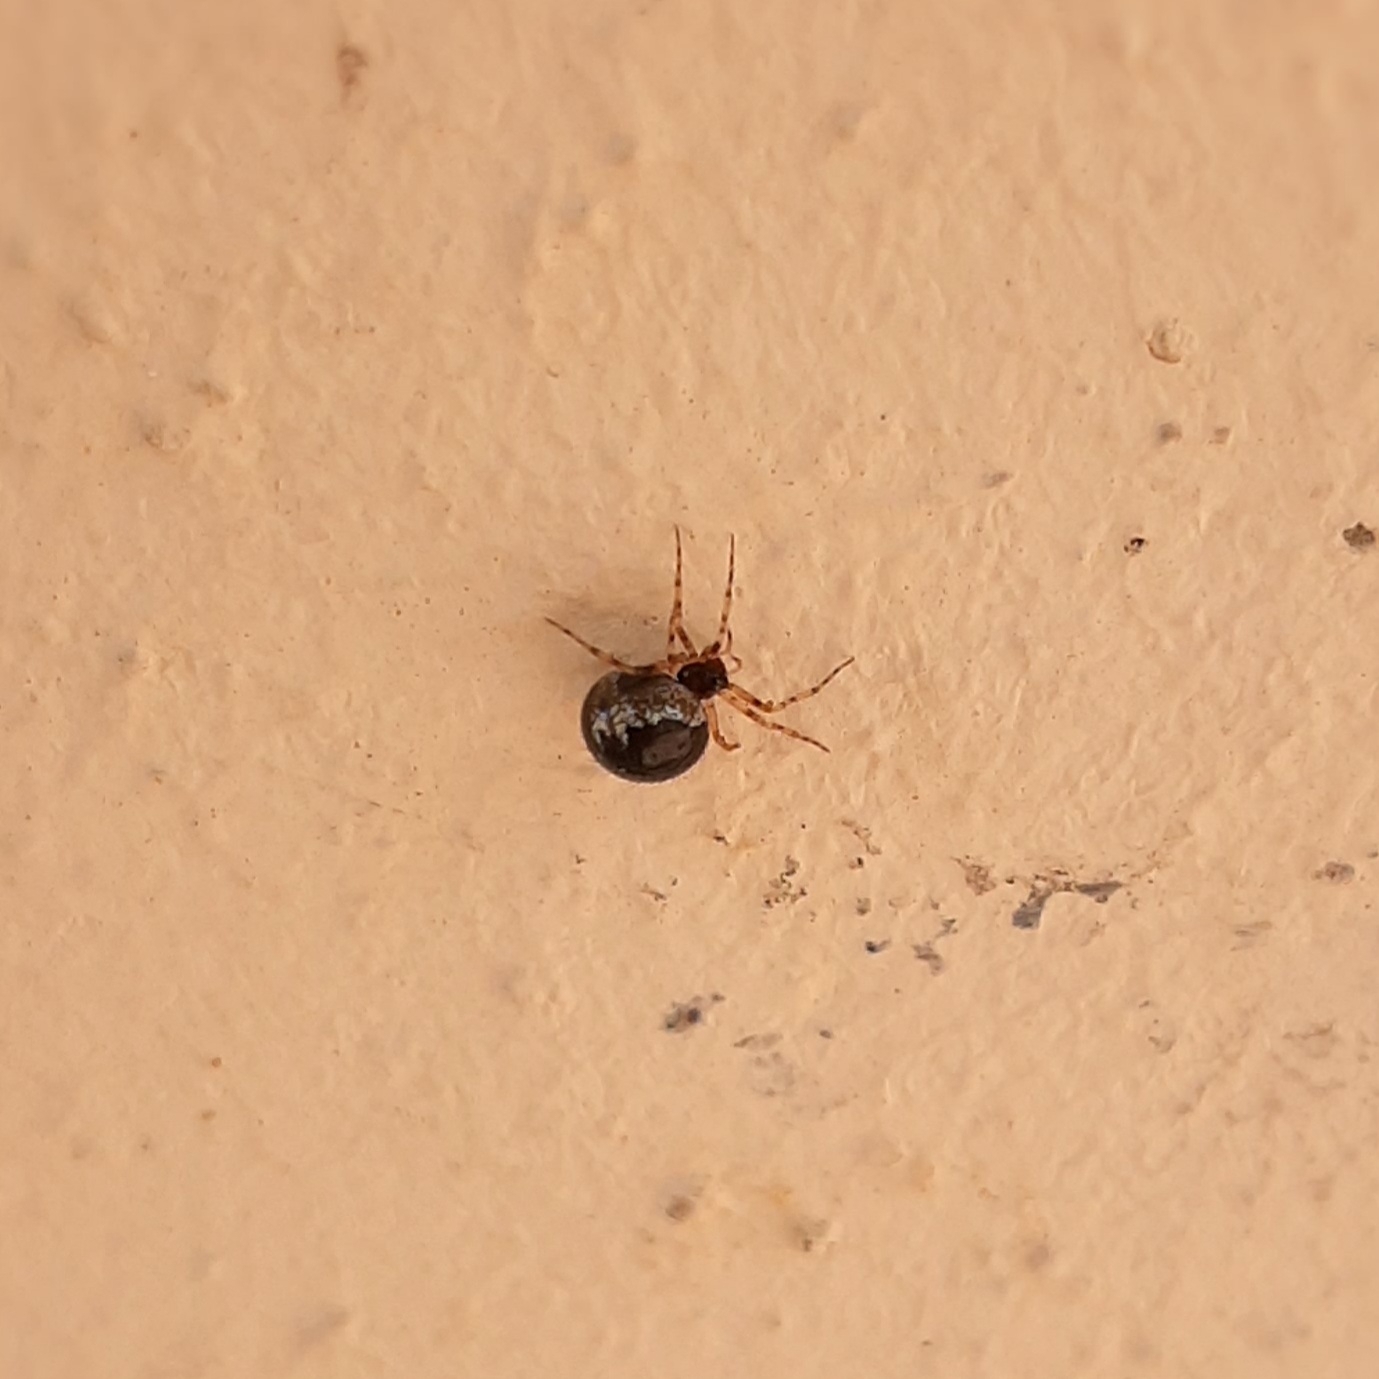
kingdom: Animalia
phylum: Arthropoda
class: Arachnida
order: Araneae
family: Theridiidae
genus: Sardinidion
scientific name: Sardinidion blackwalli
